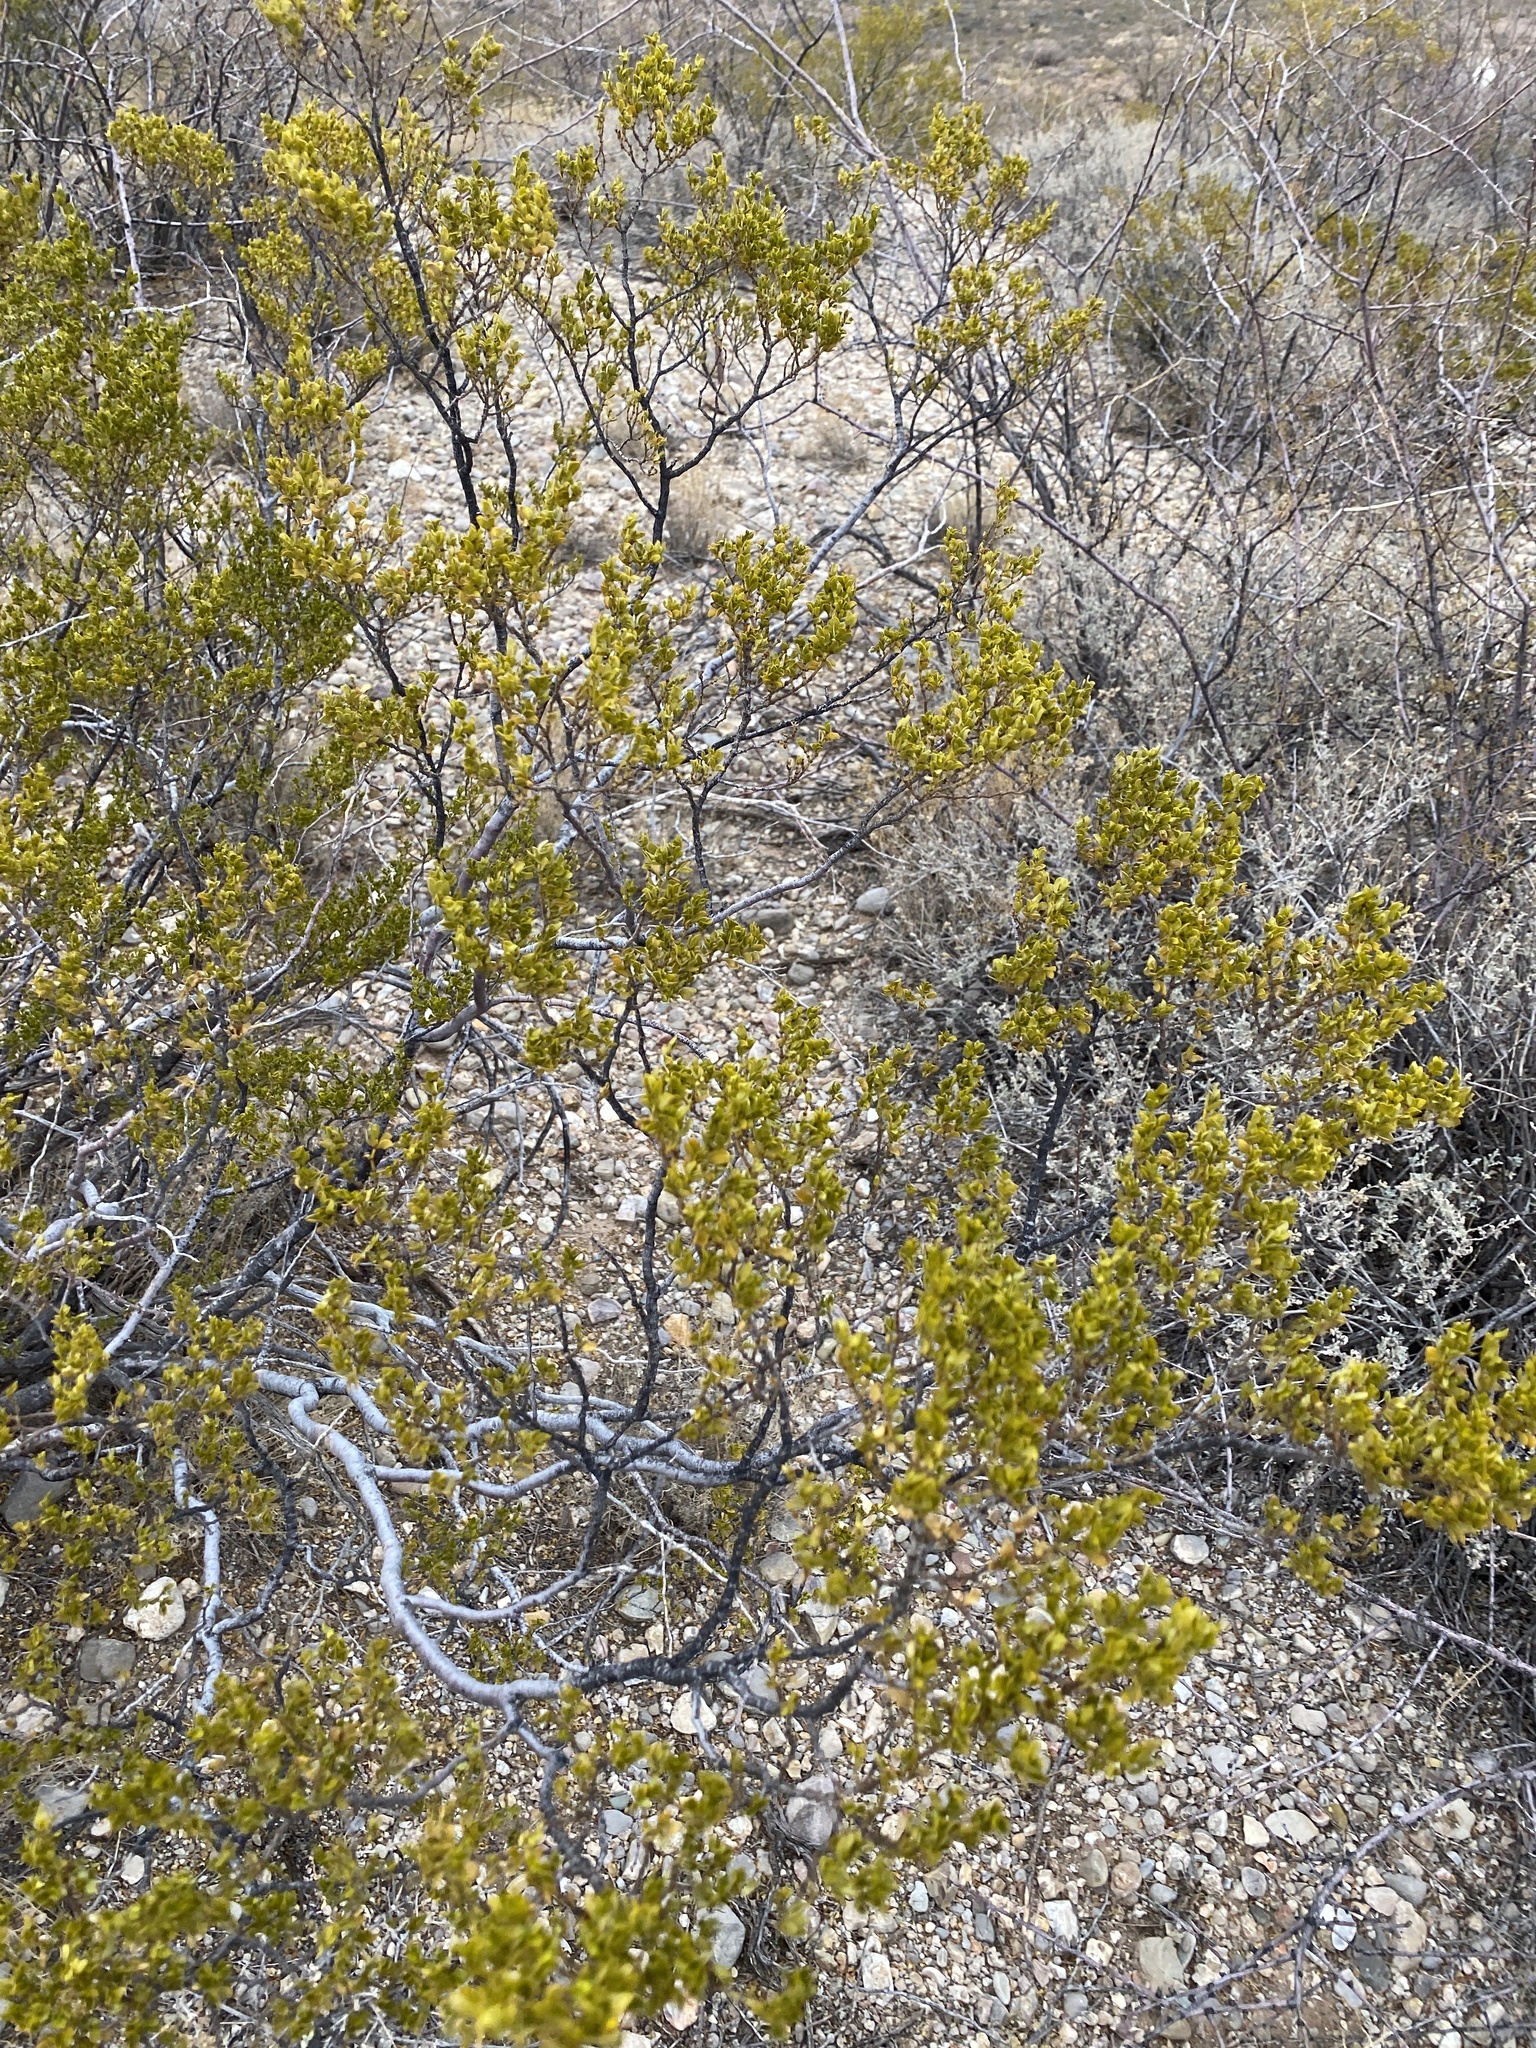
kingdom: Plantae
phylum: Tracheophyta
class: Magnoliopsida
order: Zygophyllales
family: Zygophyllaceae
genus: Larrea
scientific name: Larrea tridentata
